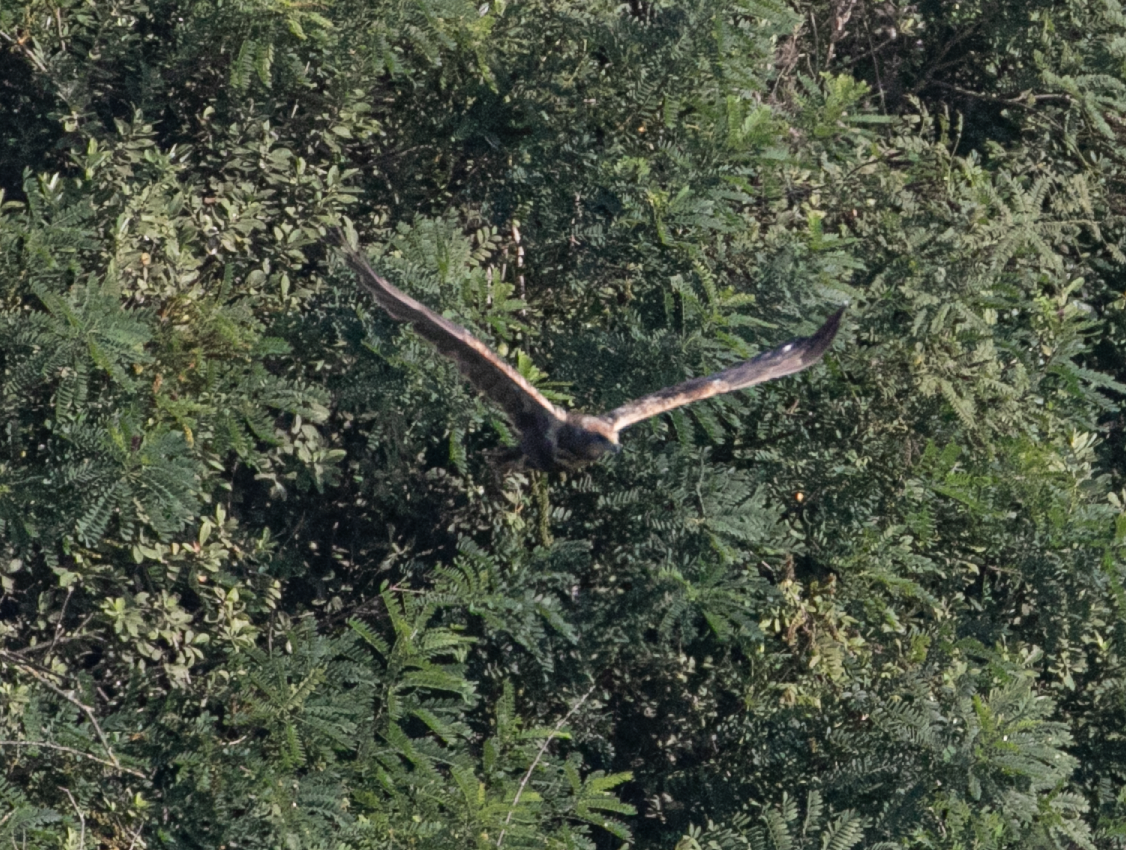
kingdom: Animalia
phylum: Chordata
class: Aves
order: Accipitriformes
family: Accipitridae
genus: Circus
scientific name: Circus aeruginosus
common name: Western marsh harrier
